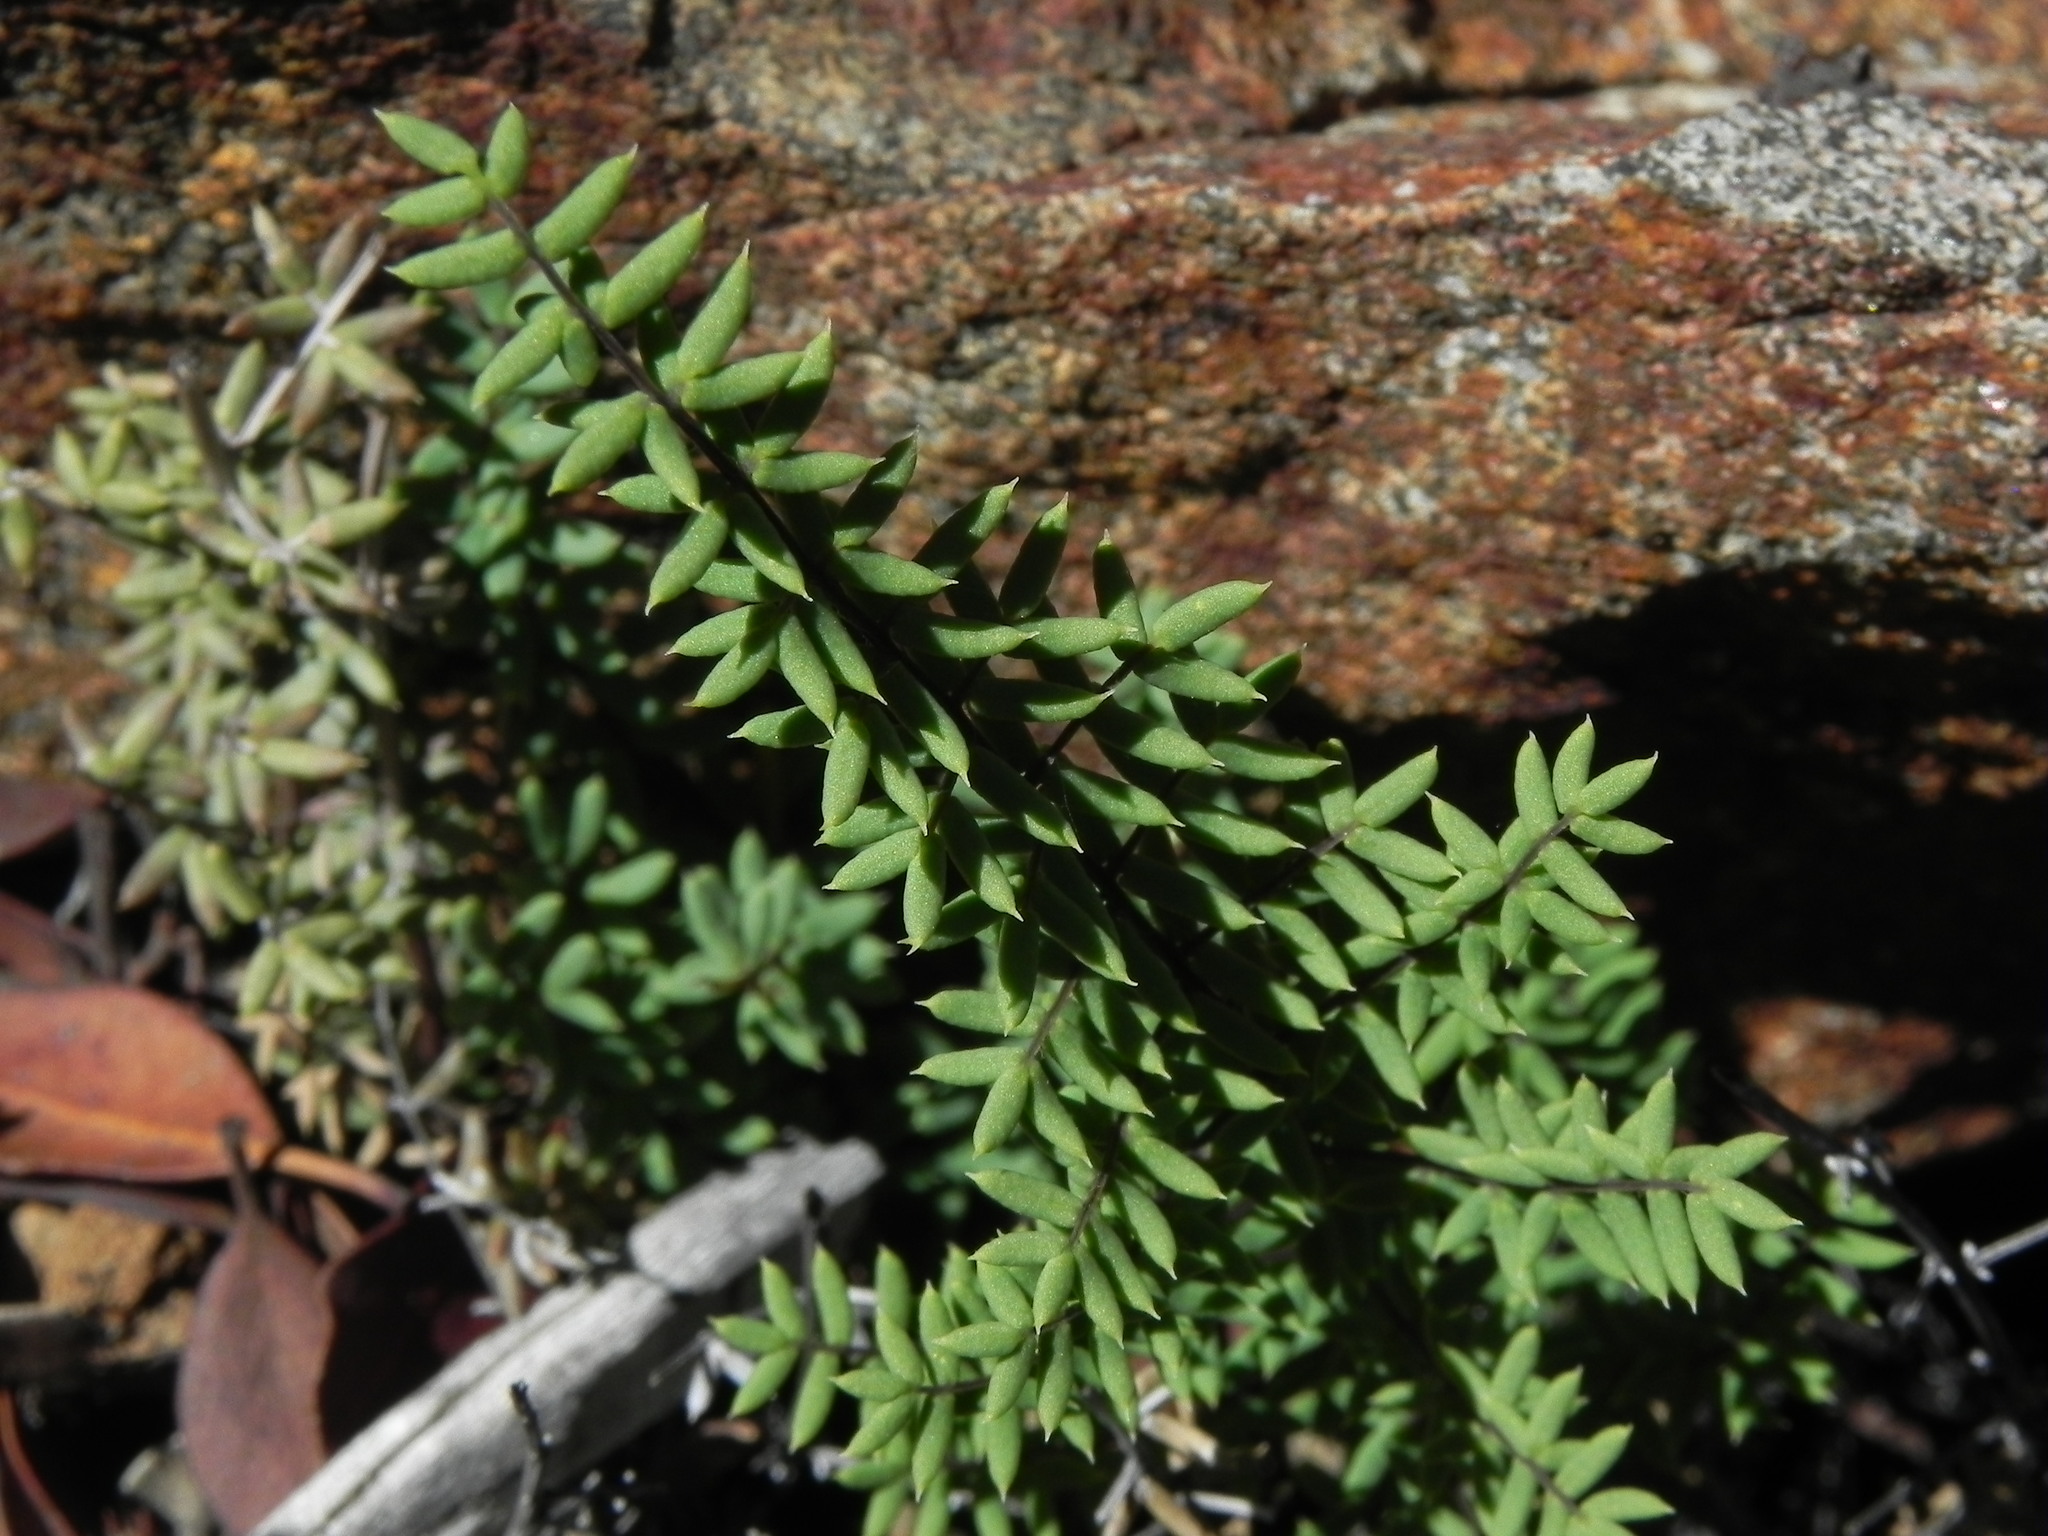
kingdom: Plantae
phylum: Tracheophyta
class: Polypodiopsida
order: Polypodiales
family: Pteridaceae
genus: Pellaea
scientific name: Pellaea mucronata
